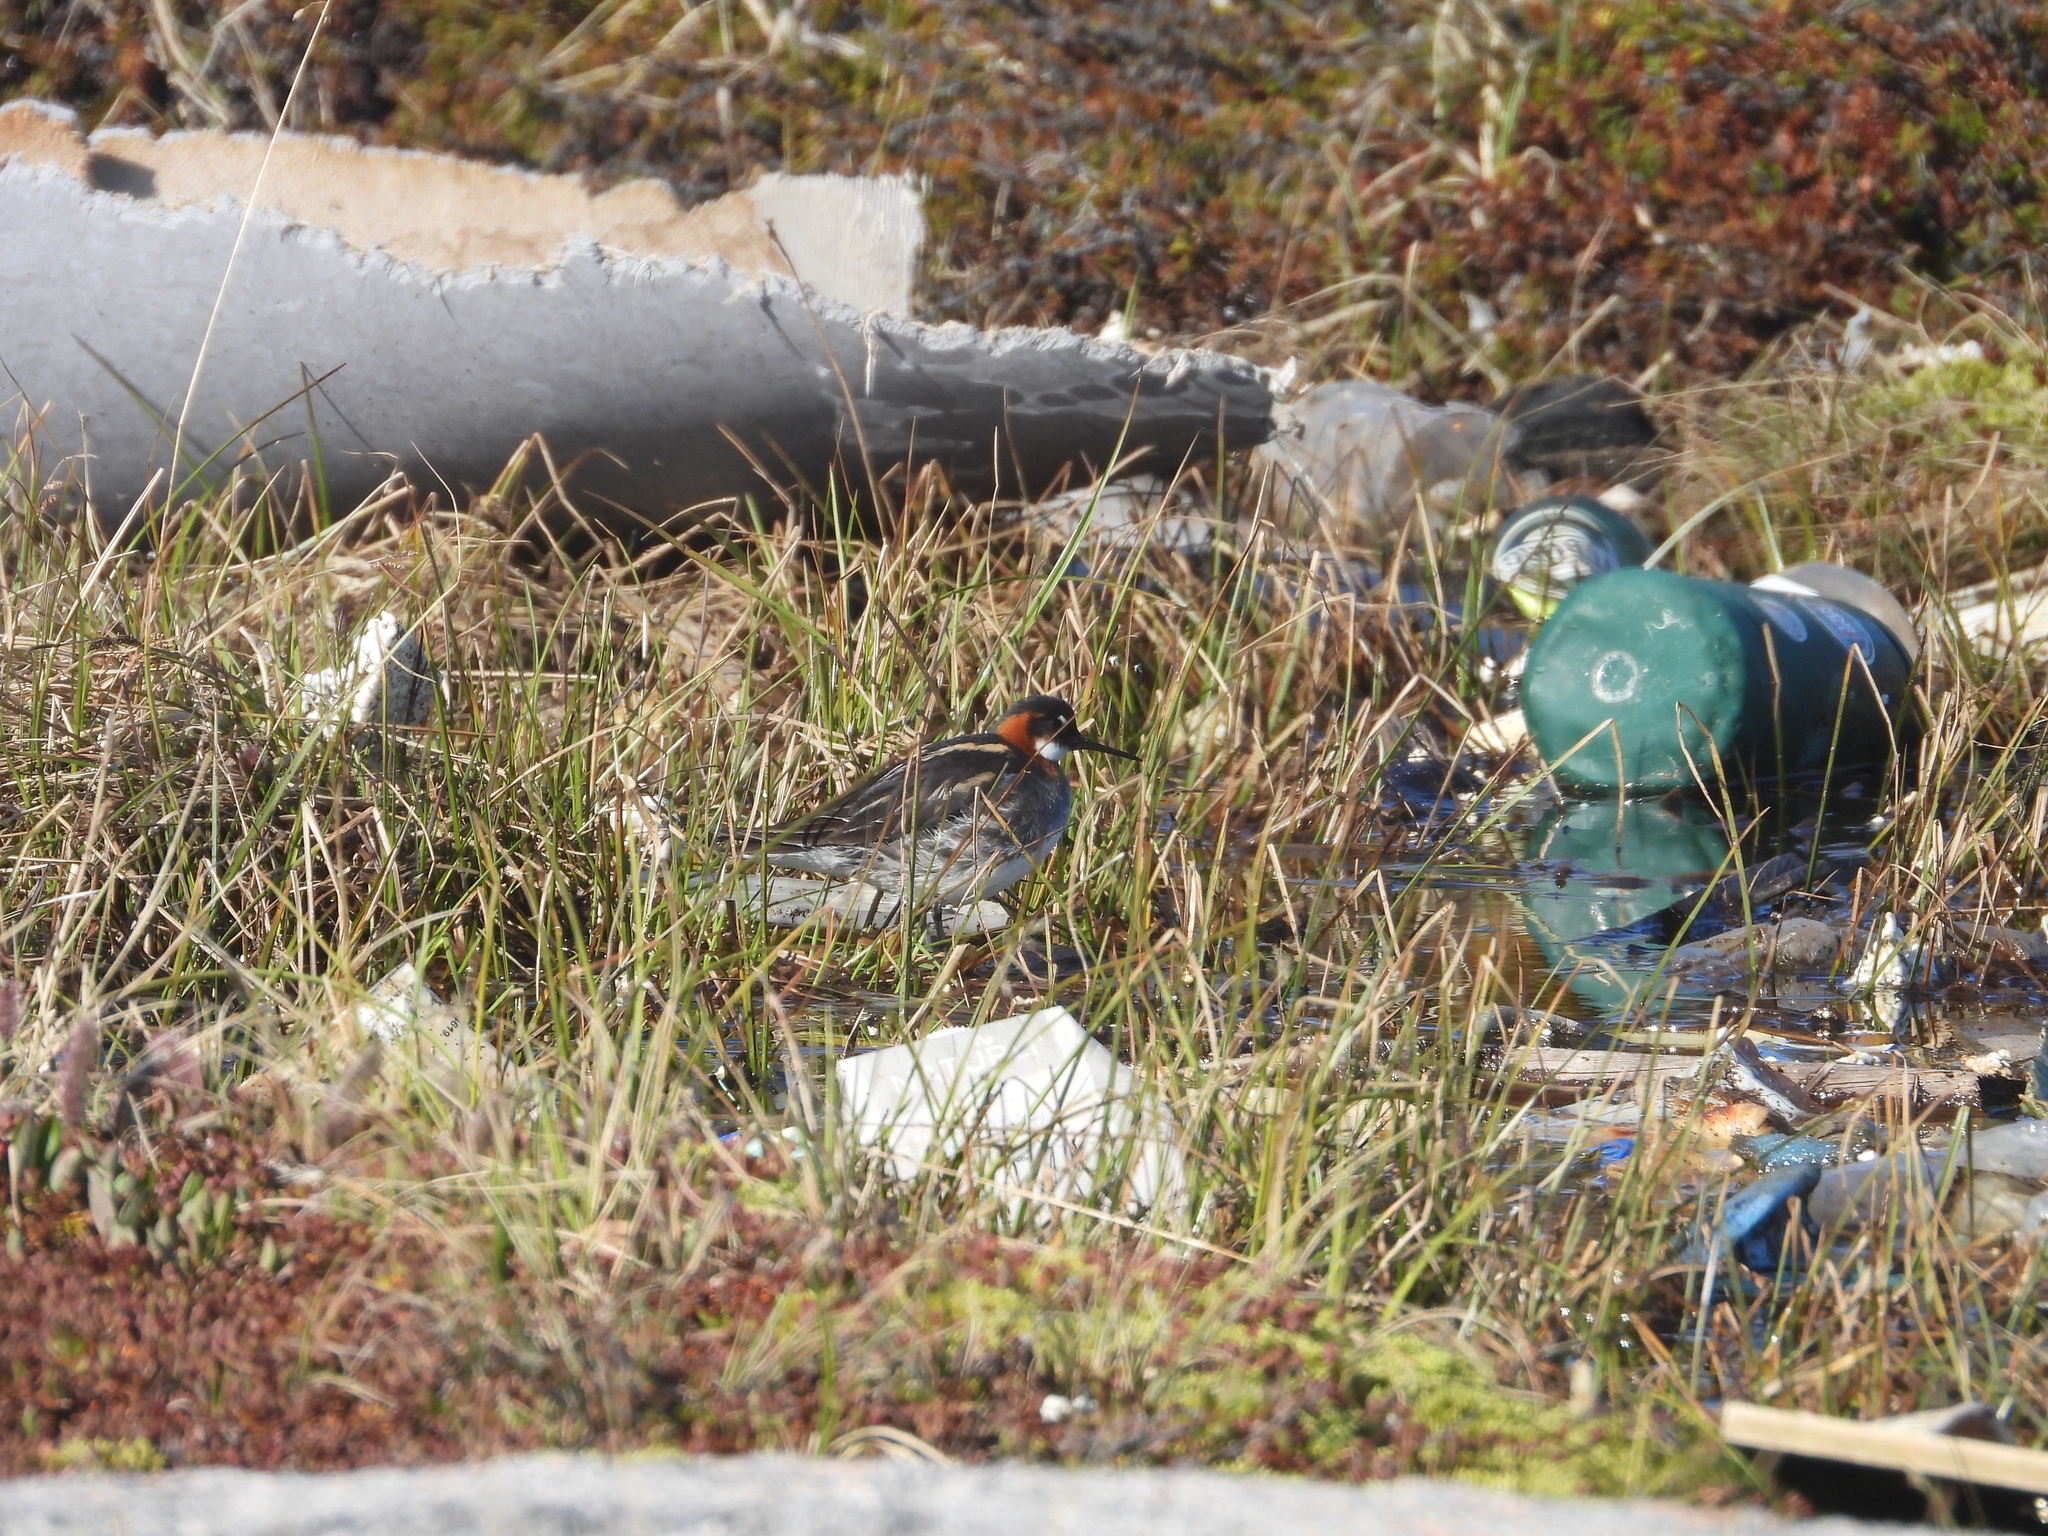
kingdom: Animalia
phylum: Chordata
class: Aves
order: Charadriiformes
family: Scolopacidae
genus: Phalaropus
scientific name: Phalaropus lobatus
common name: Red-necked phalarope
